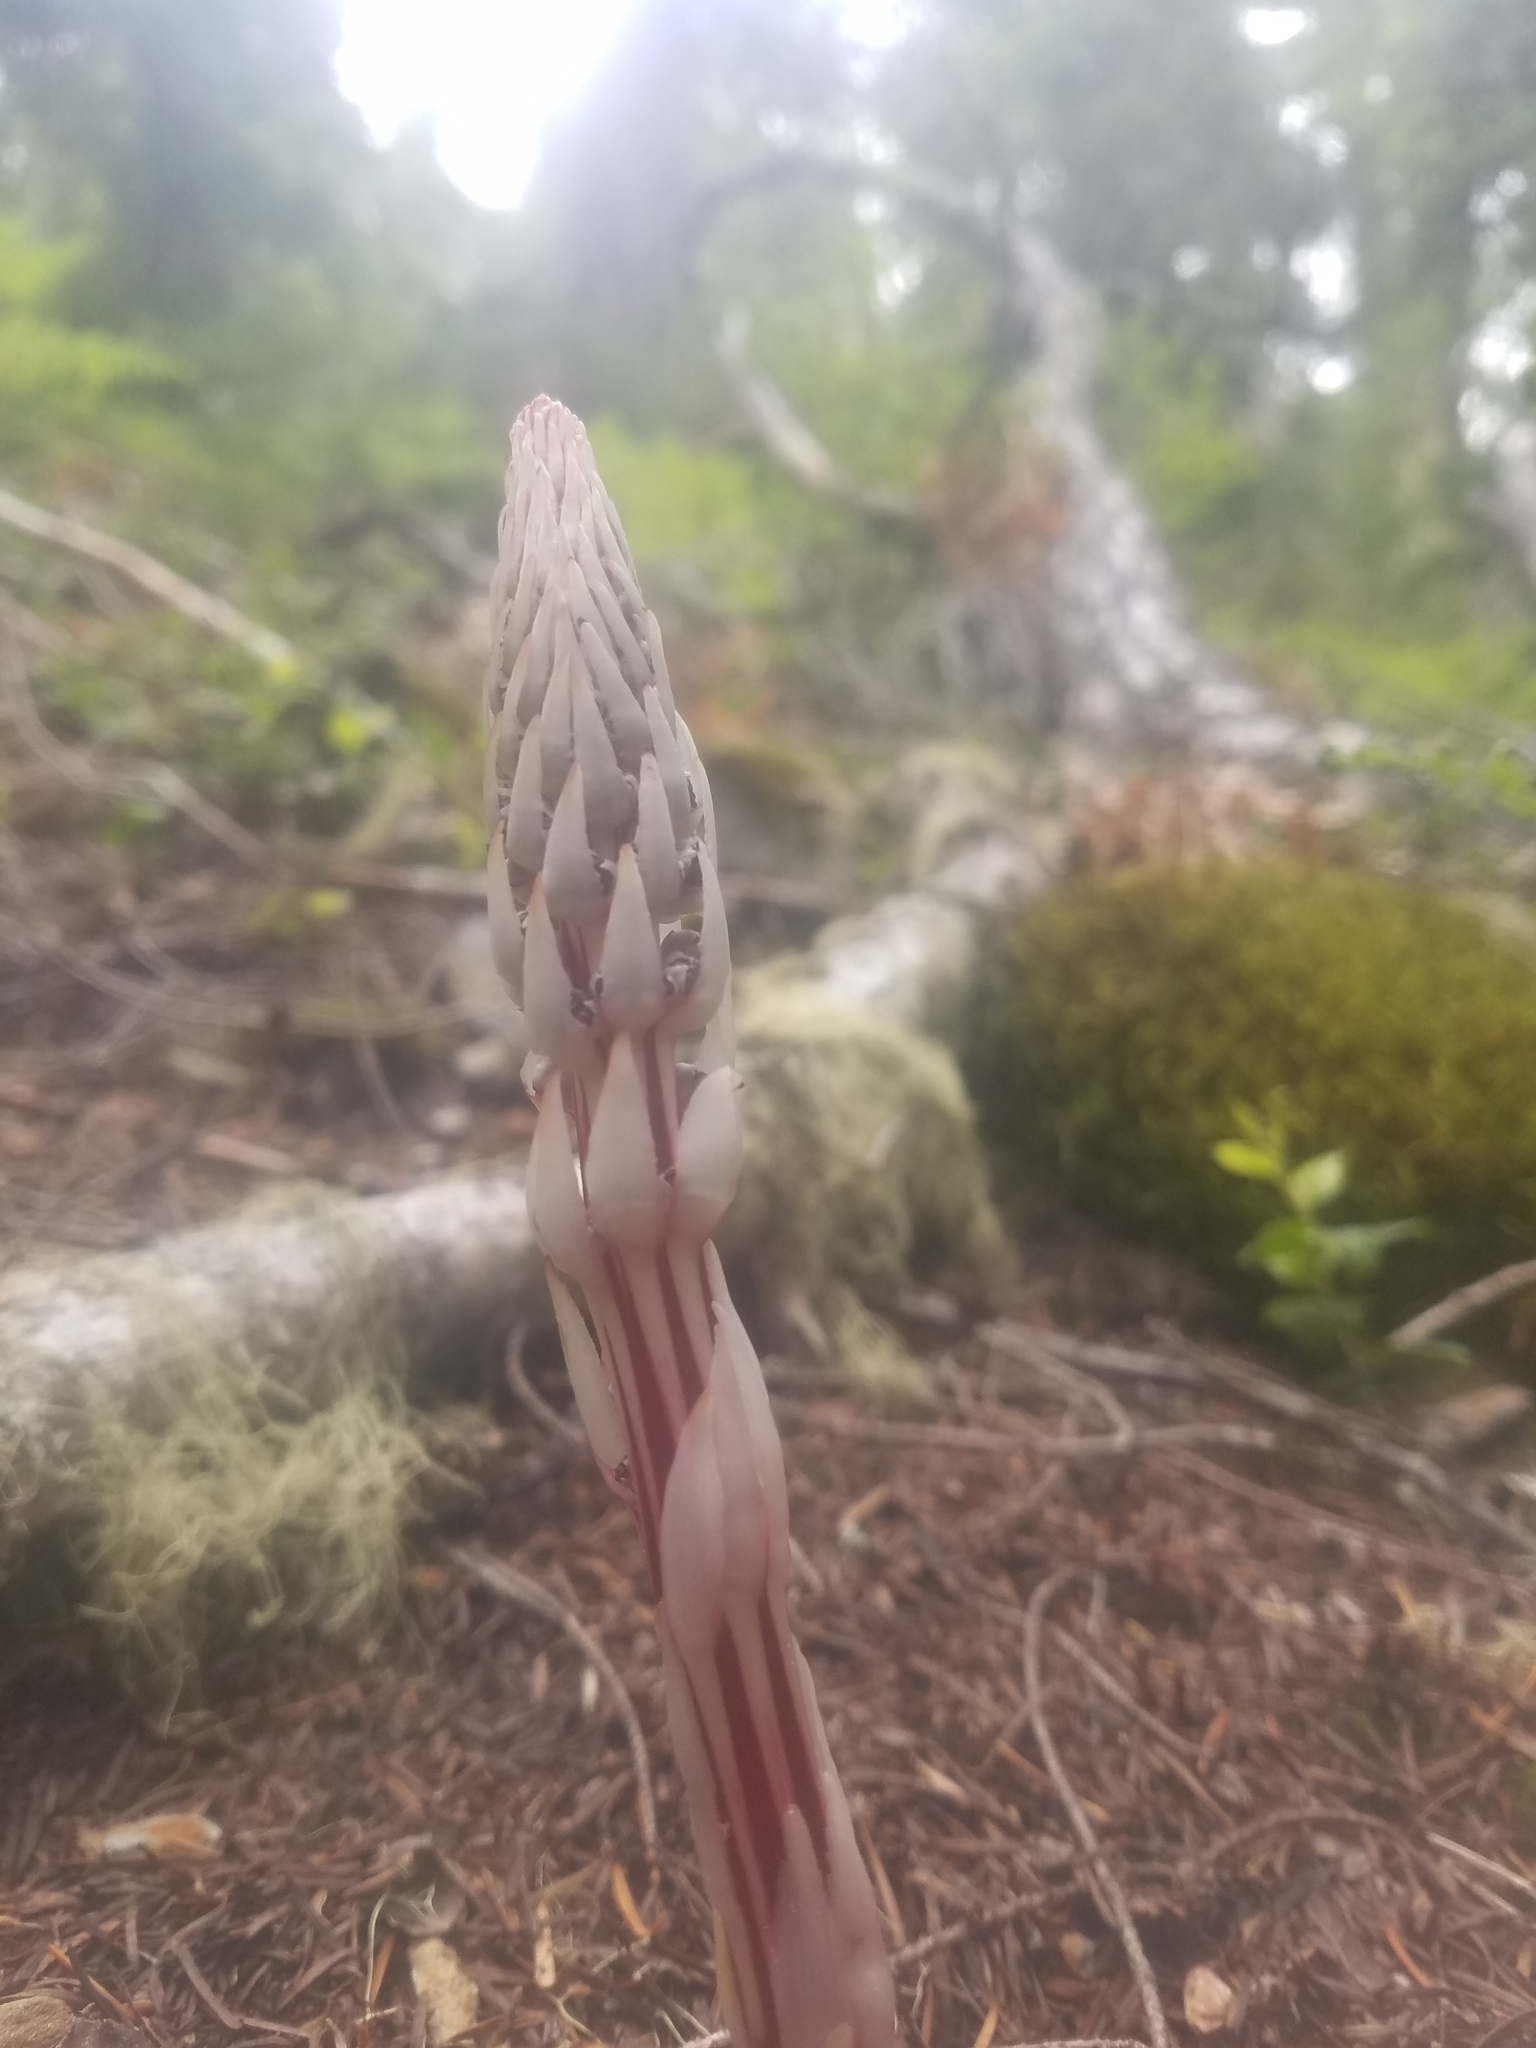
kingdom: Plantae
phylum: Tracheophyta
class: Magnoliopsida
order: Ericales
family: Ericaceae
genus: Allotropa
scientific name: Allotropa virgata
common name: Candy-striped allotropa
